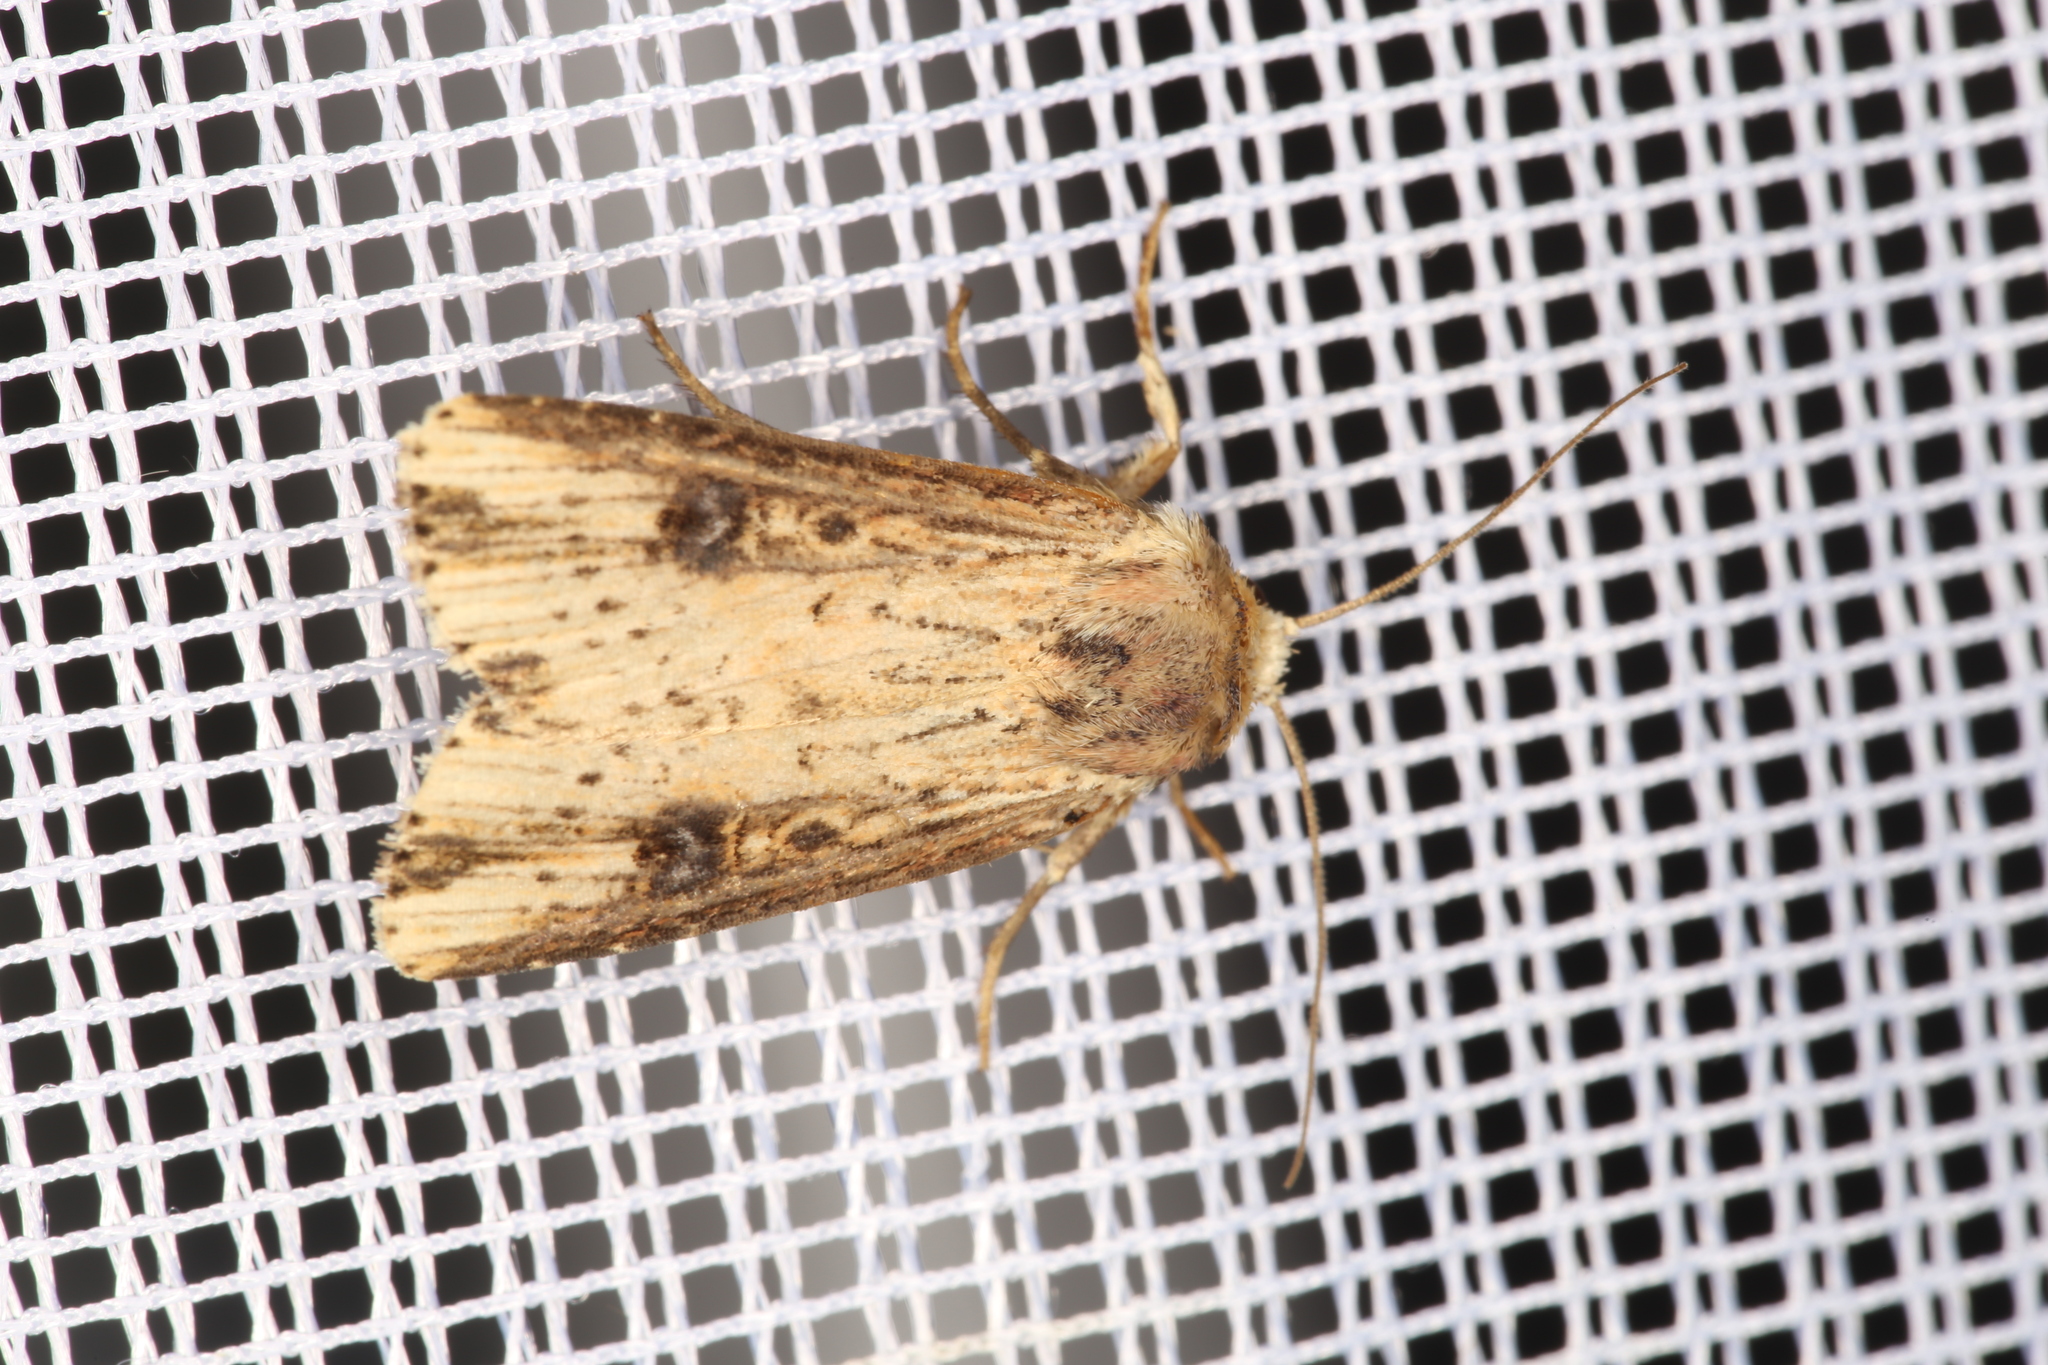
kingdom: Animalia
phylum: Arthropoda
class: Insecta
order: Lepidoptera
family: Noctuidae
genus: Axylia
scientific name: Axylia putris
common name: Flame
